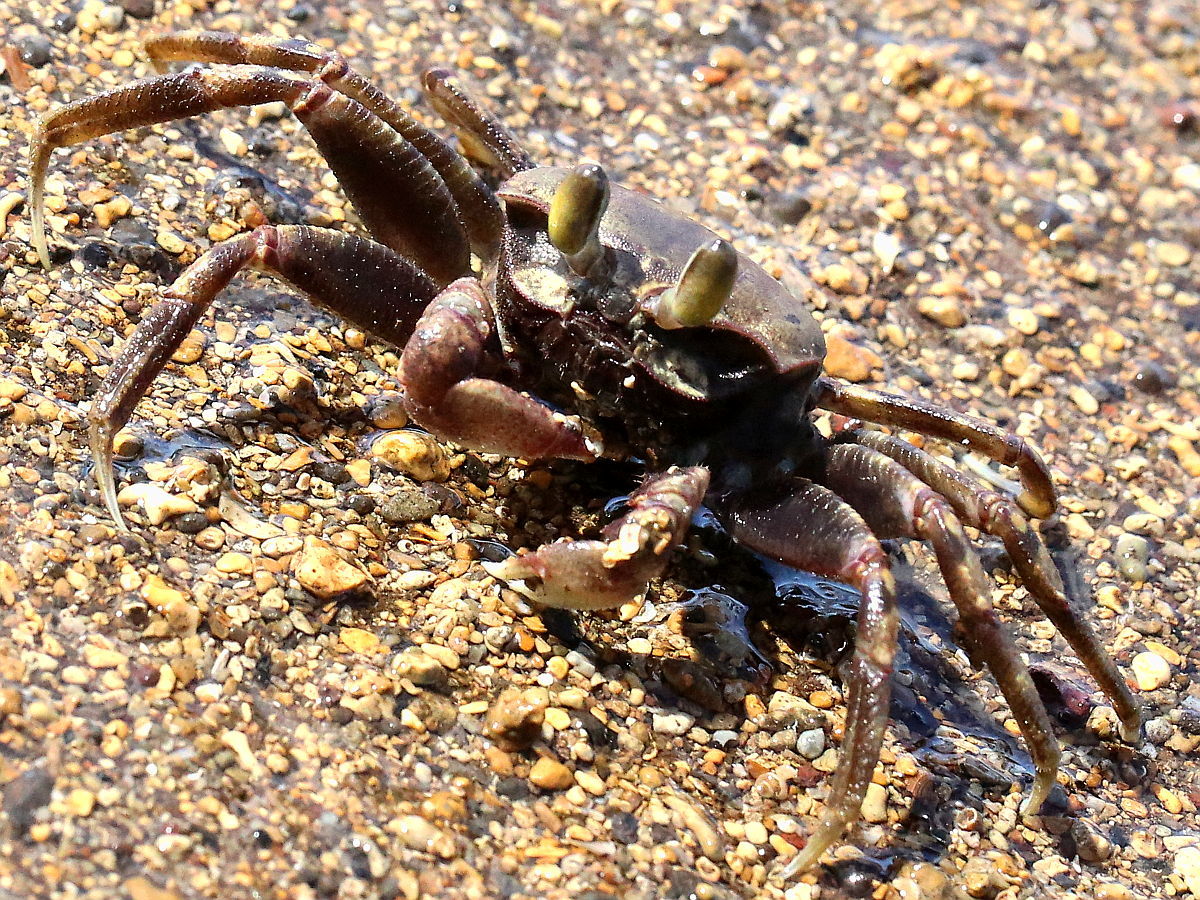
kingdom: Animalia
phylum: Arthropoda
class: Malacostraca
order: Decapoda
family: Ocypodidae
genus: Ocypode
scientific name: Ocypode ceratophthalmus
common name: Indo-pacific ghost crab
